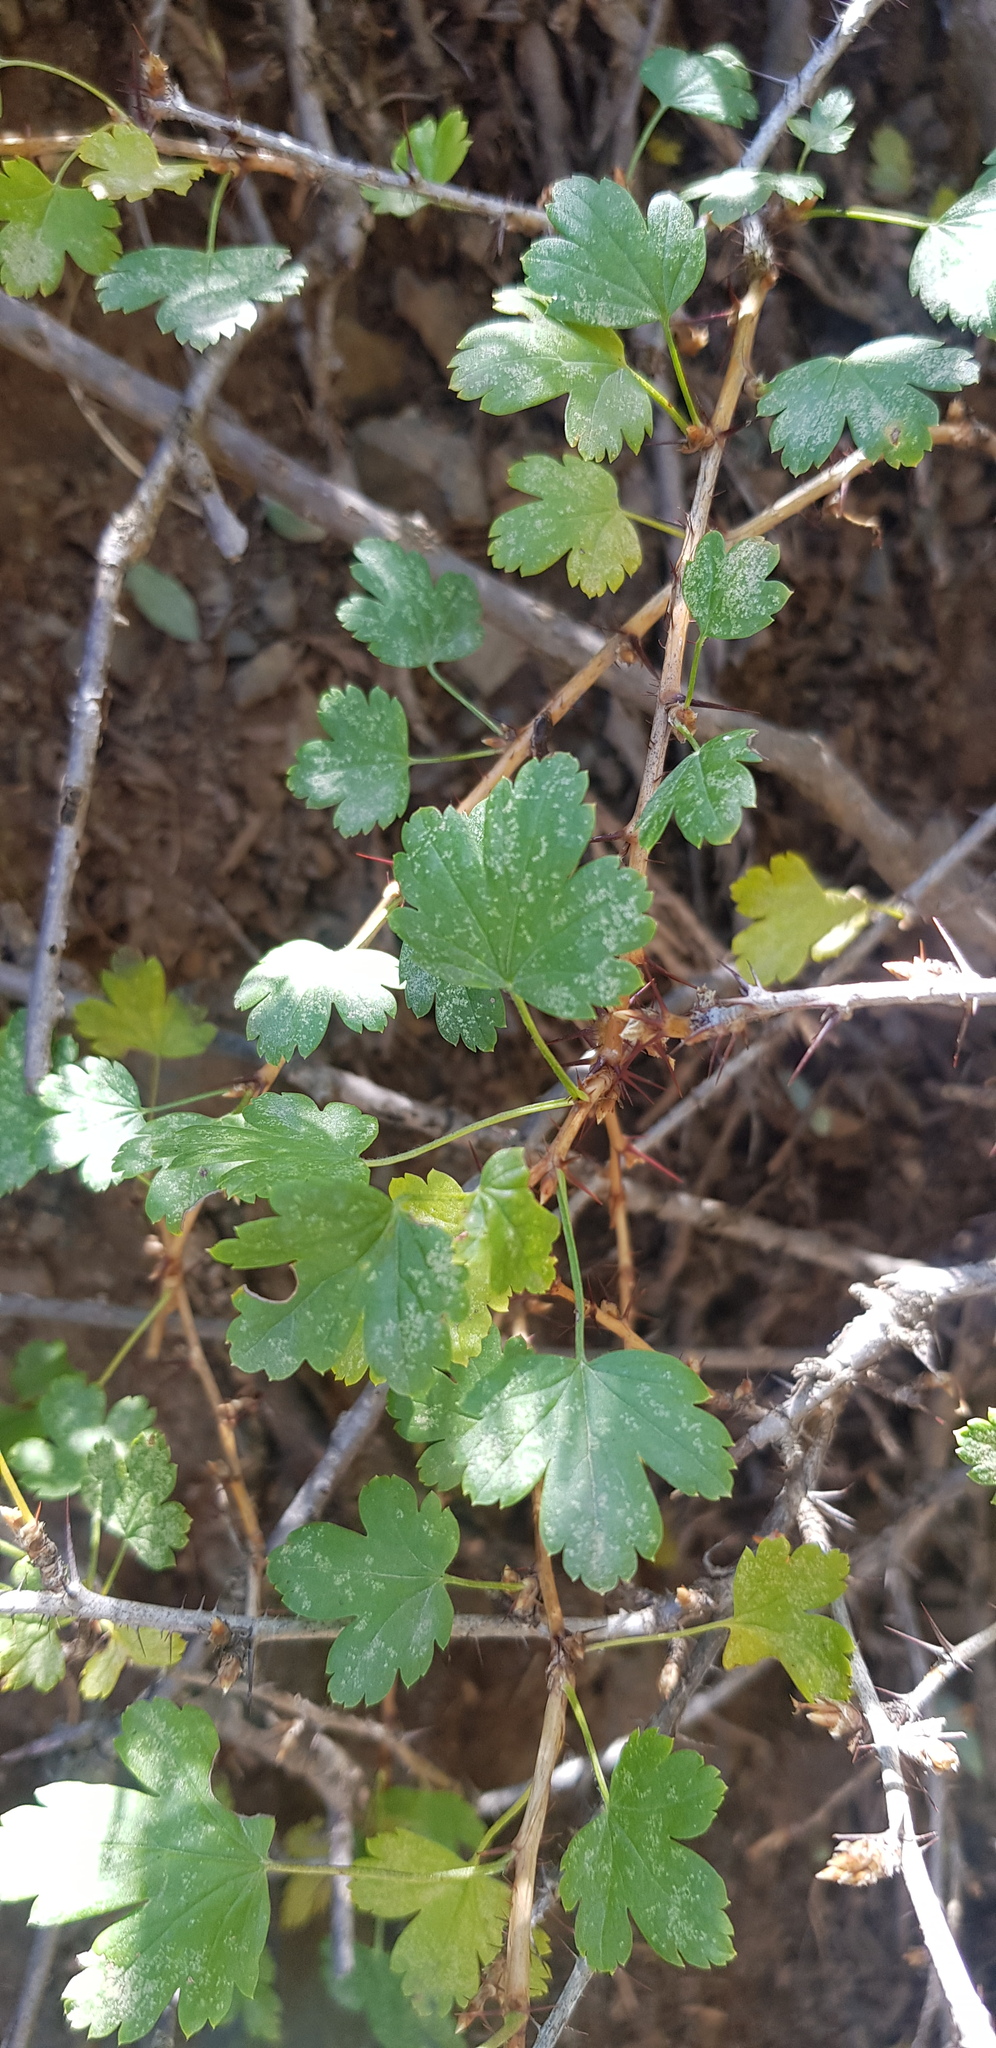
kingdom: Plantae
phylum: Tracheophyta
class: Magnoliopsida
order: Saxifragales
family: Grossulariaceae
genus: Ribes
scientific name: Ribes aciculare
